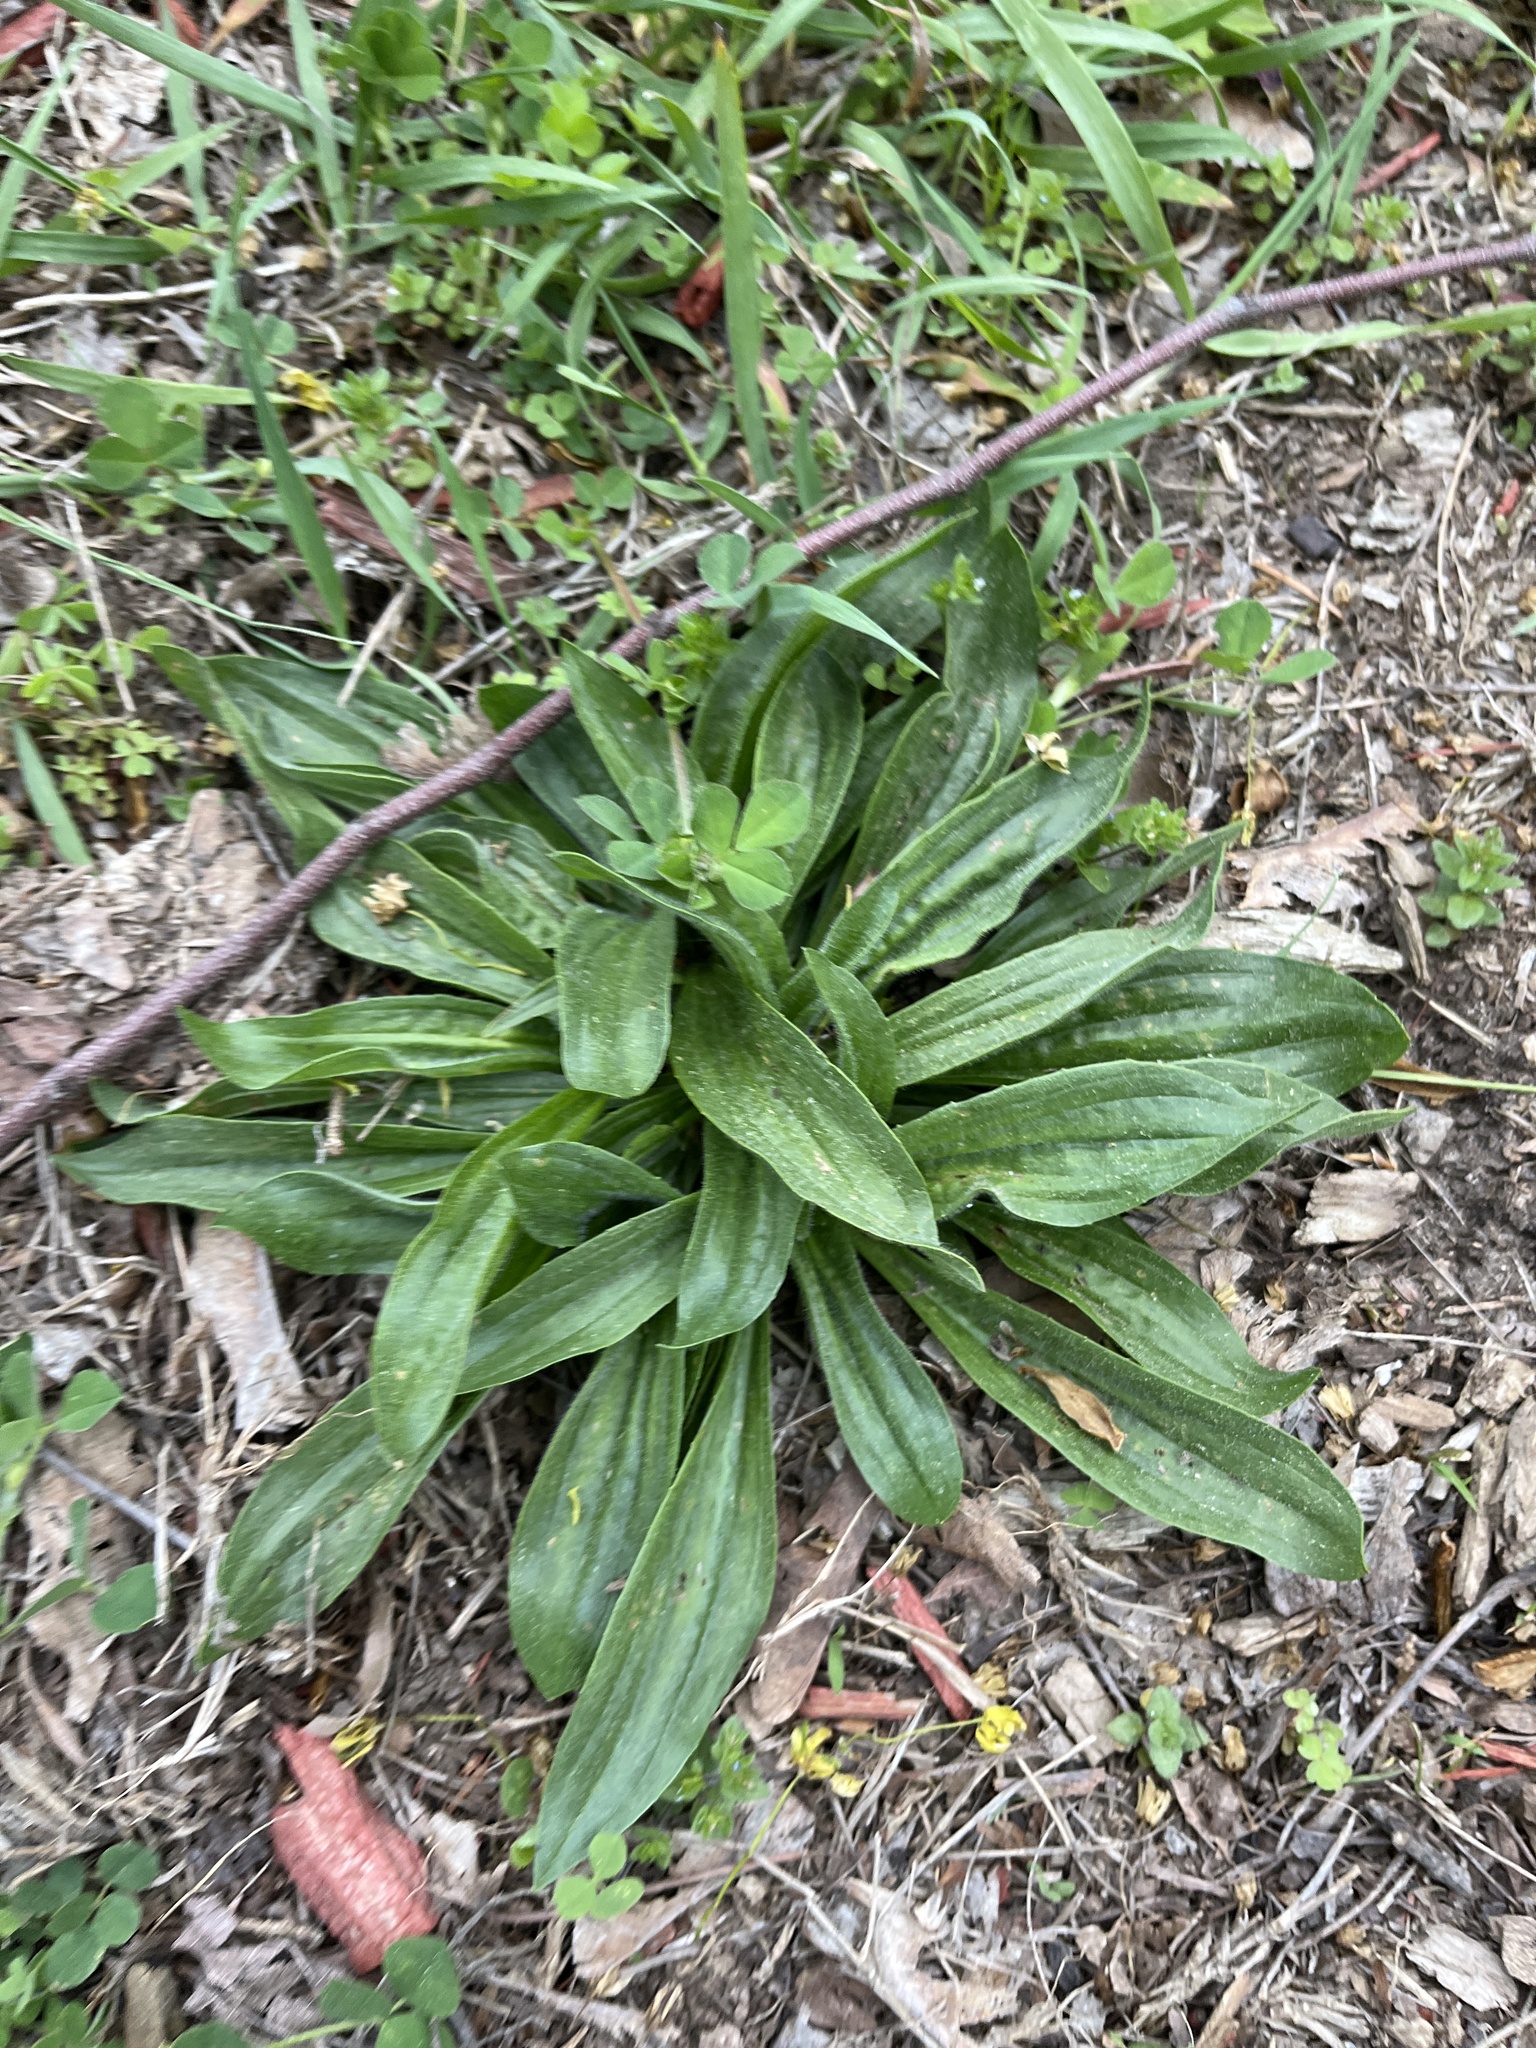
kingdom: Plantae
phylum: Tracheophyta
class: Magnoliopsida
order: Lamiales
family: Plantaginaceae
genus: Plantago
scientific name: Plantago lanceolata
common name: Ribwort plantain
